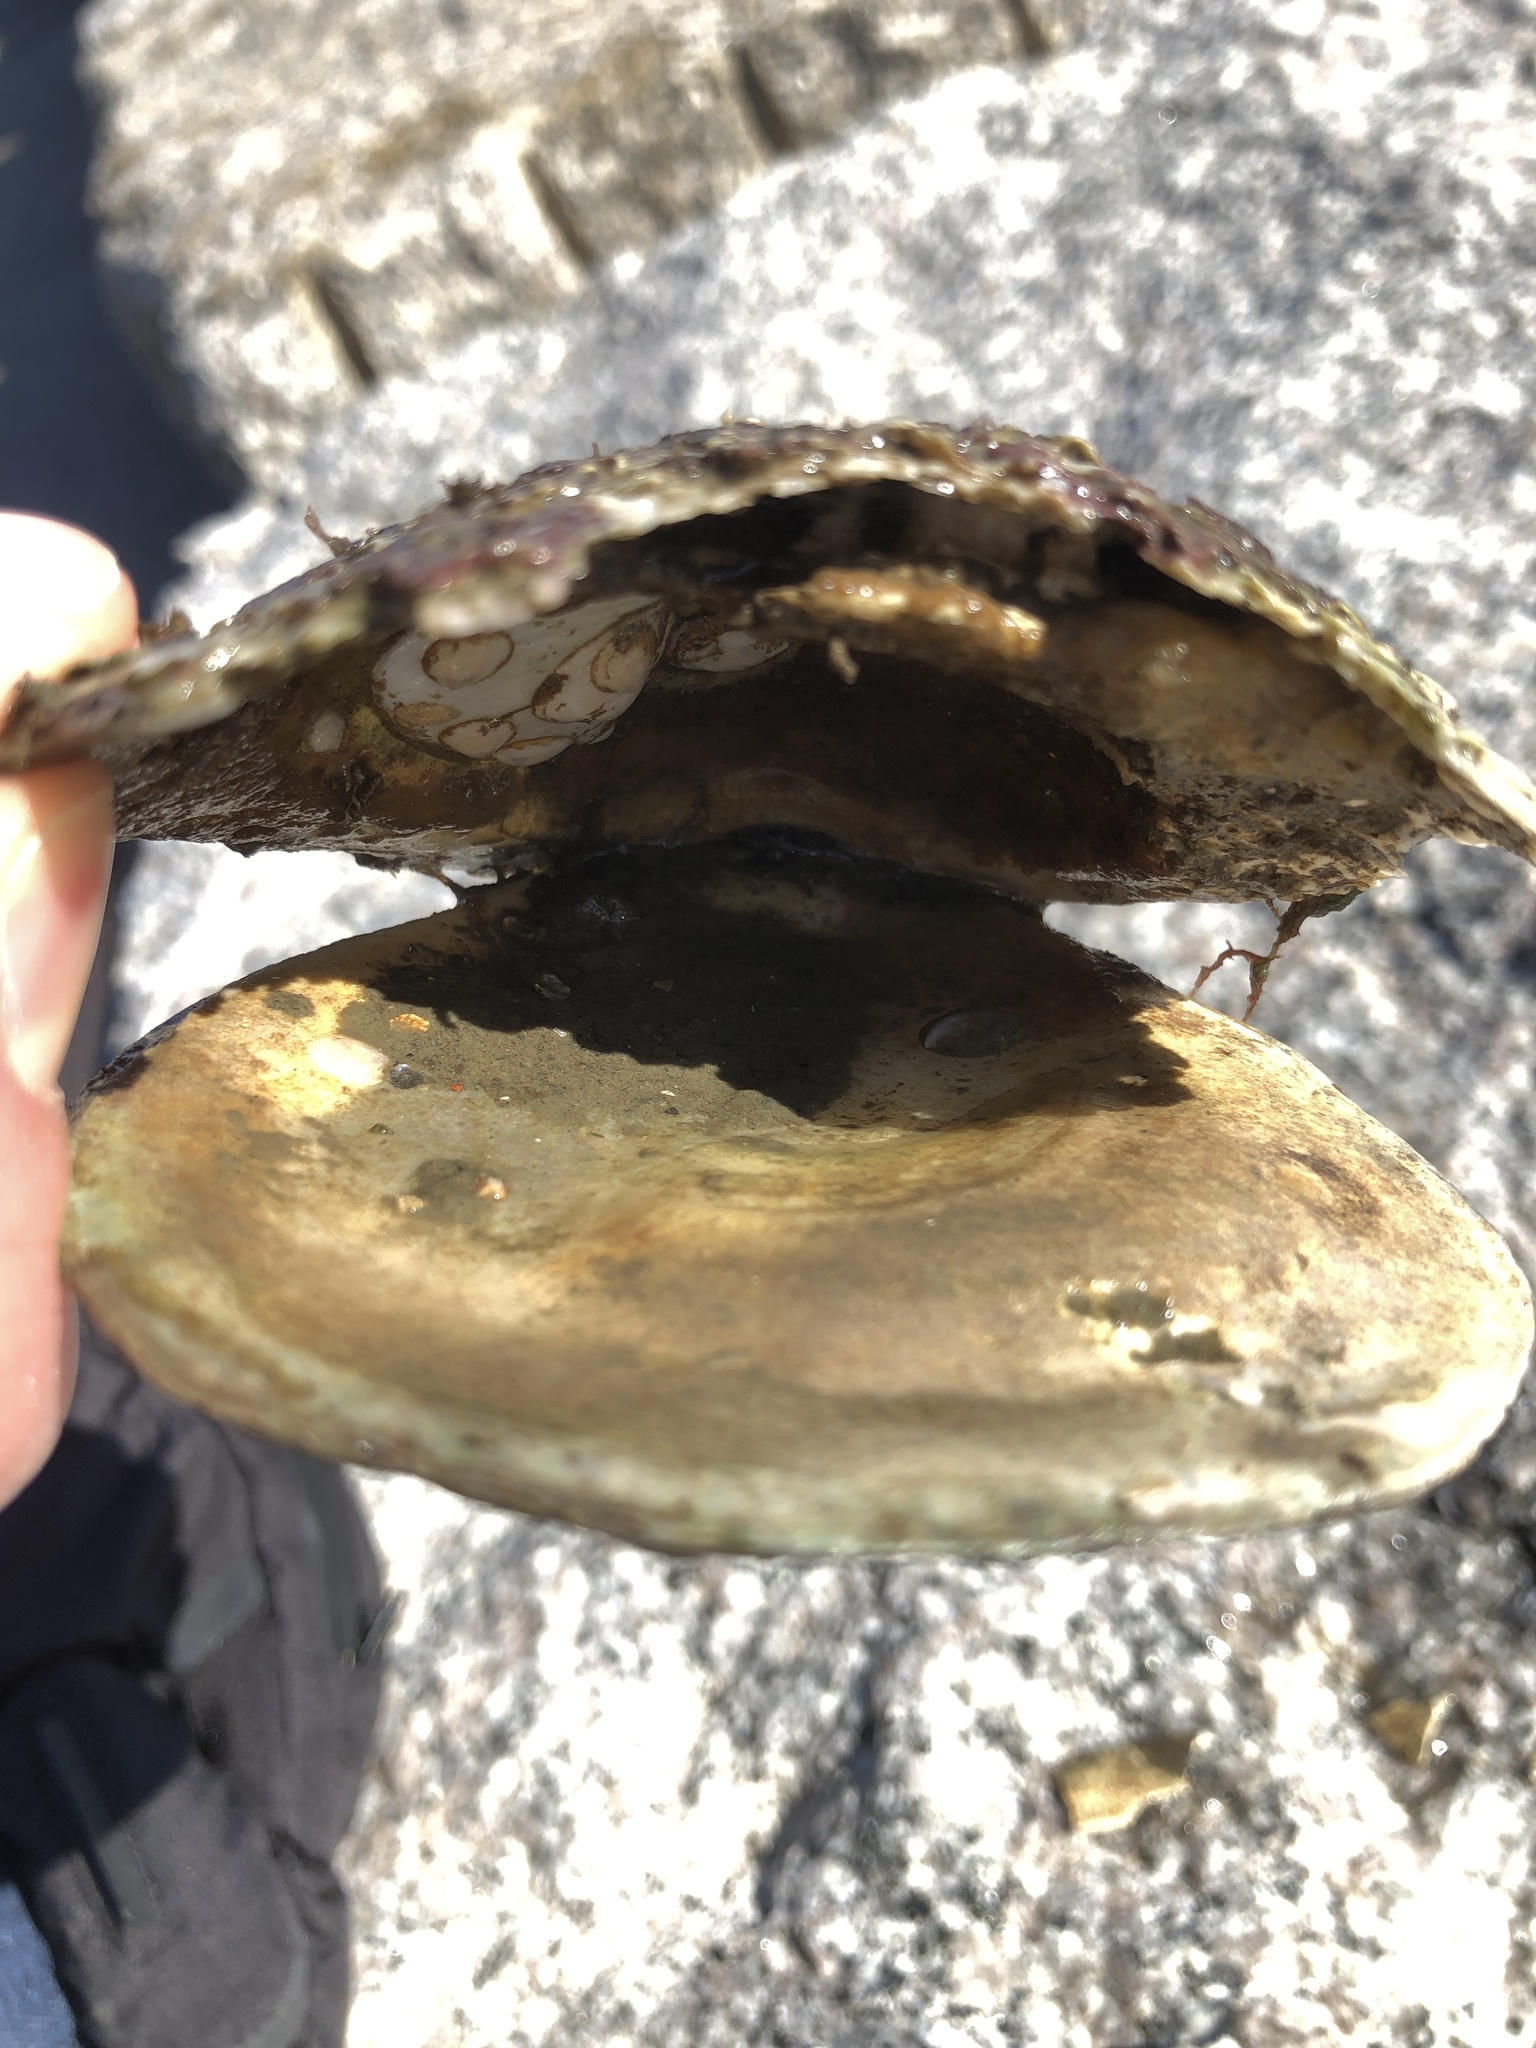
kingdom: Animalia
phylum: Mollusca
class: Bivalvia
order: Ostreida
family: Ostreidae
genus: Ostrea
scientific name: Ostrea edulis
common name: Flat oyster
